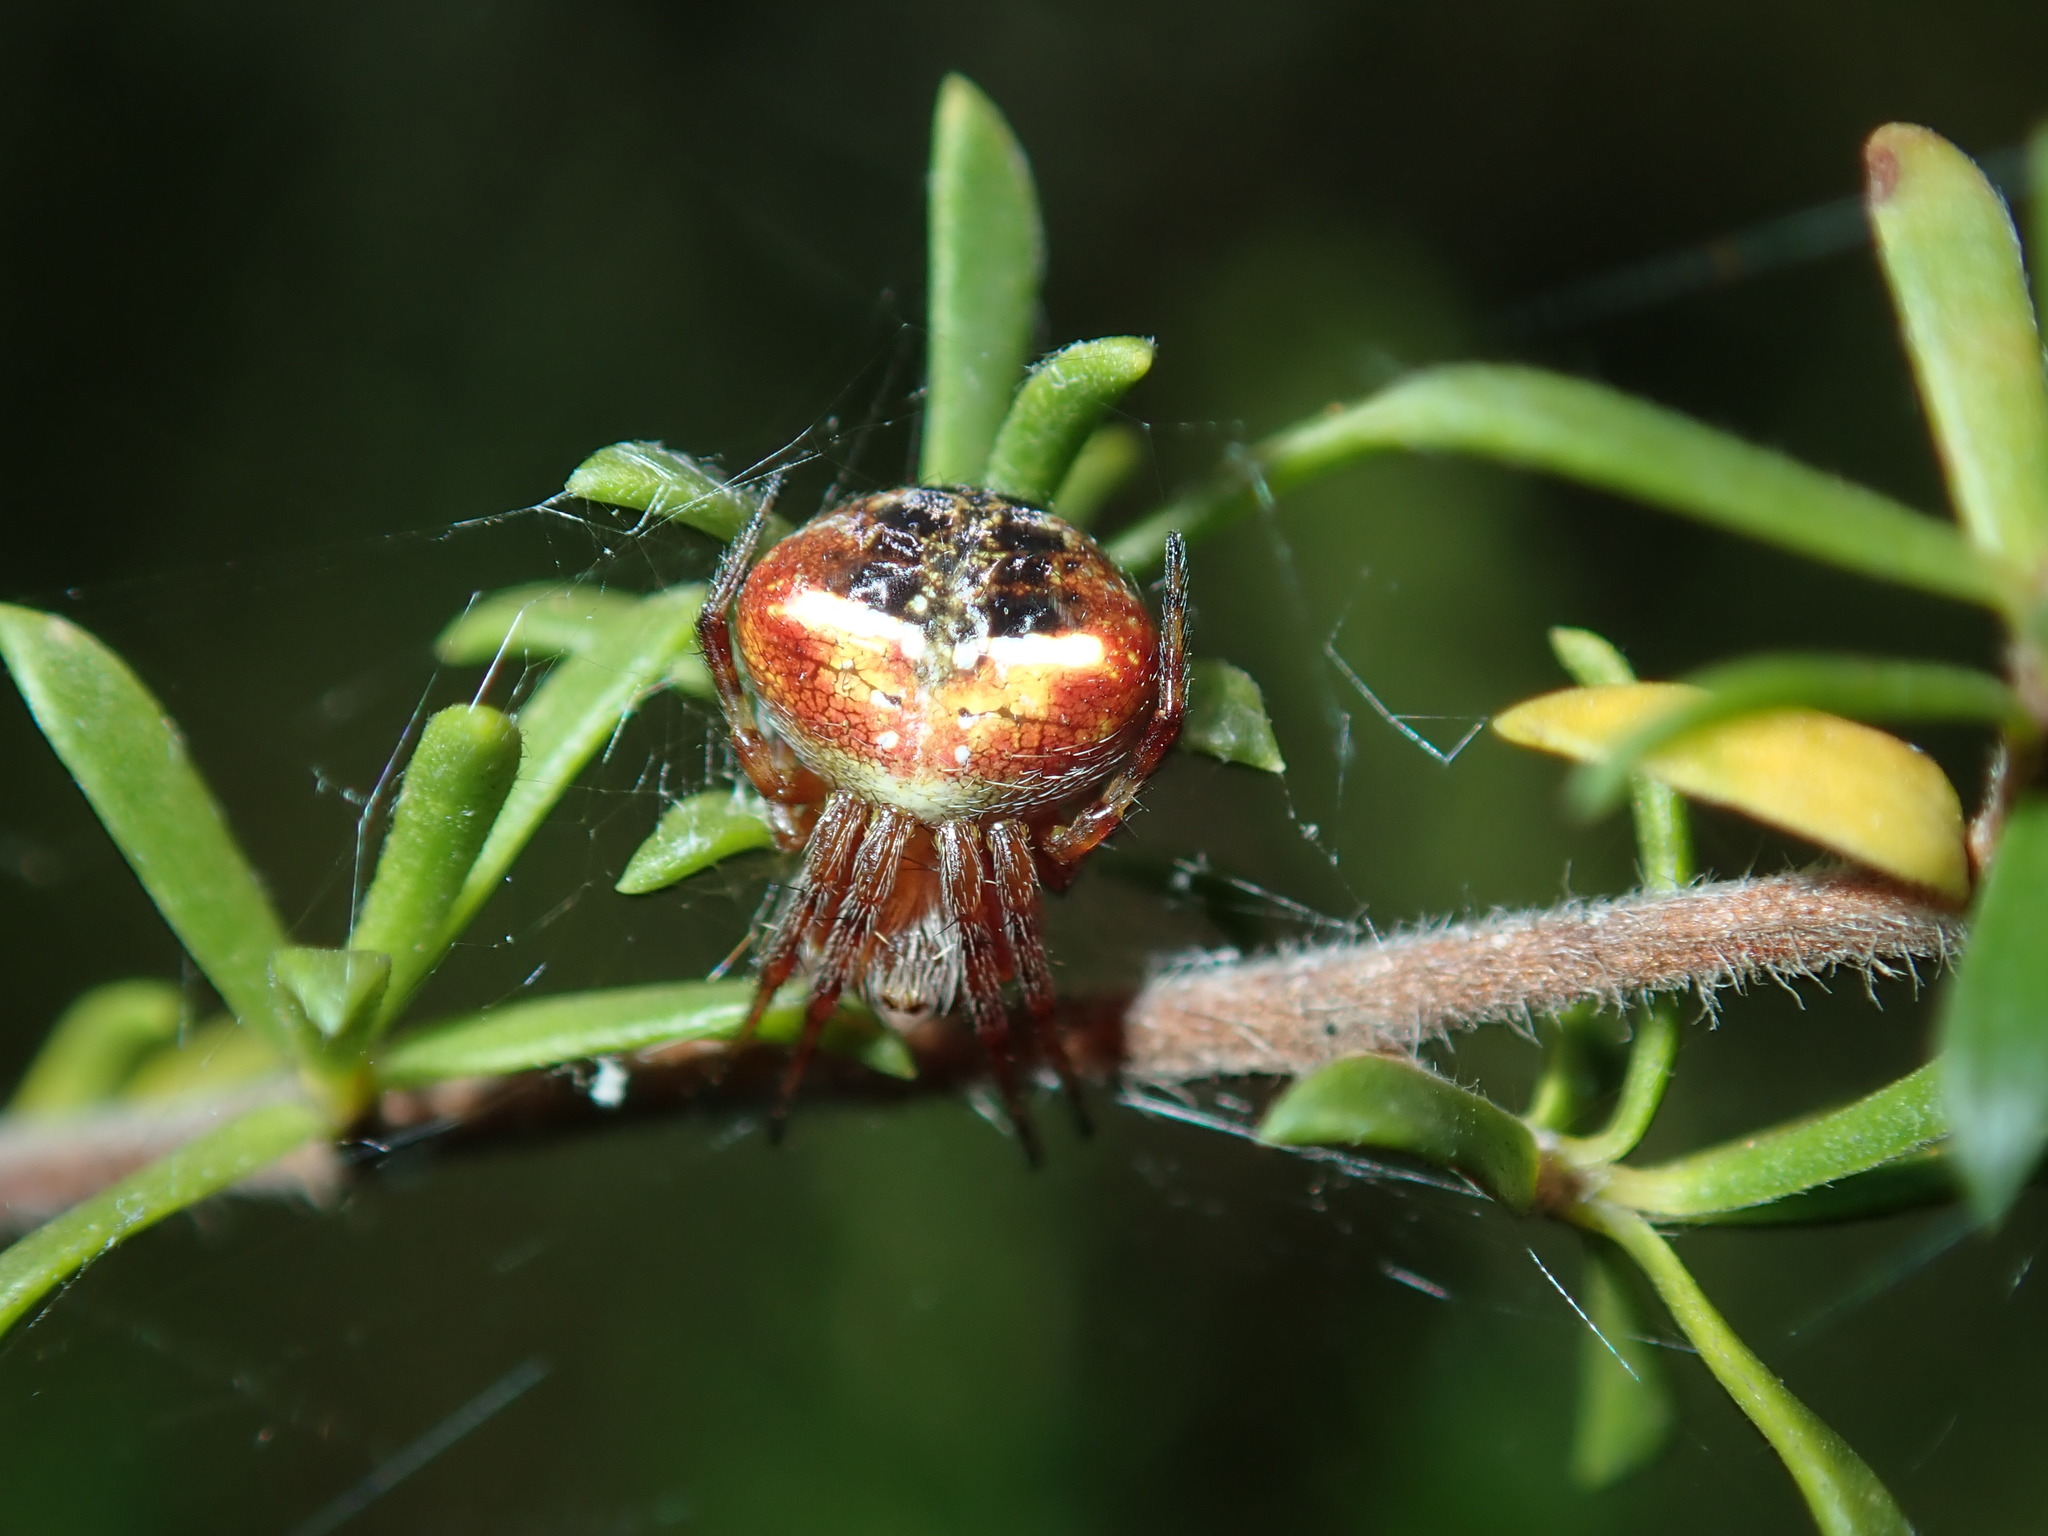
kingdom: Animalia
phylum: Arthropoda
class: Arachnida
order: Araneae
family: Araneidae
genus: Araneus
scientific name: Araneus albotriangulus
